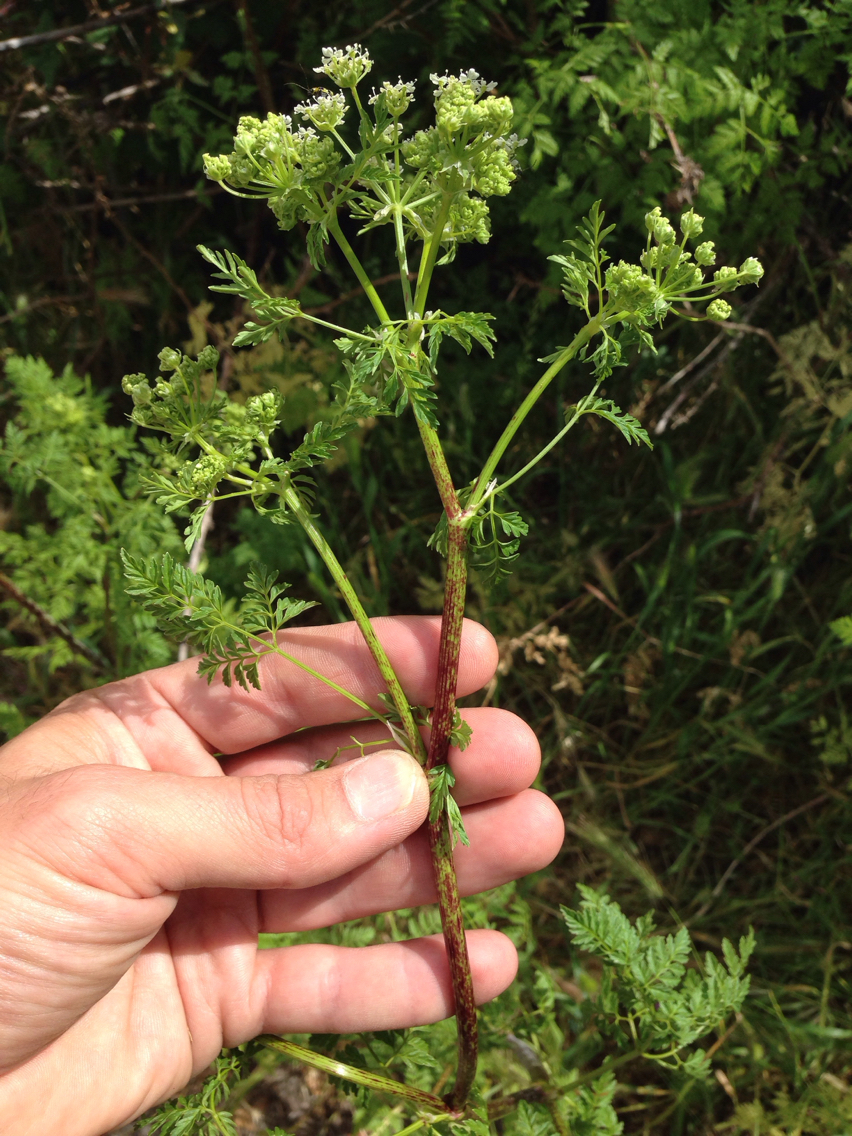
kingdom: Plantae
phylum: Tracheophyta
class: Magnoliopsida
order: Apiales
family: Apiaceae
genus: Conium
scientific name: Conium maculatum
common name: Hemlock
